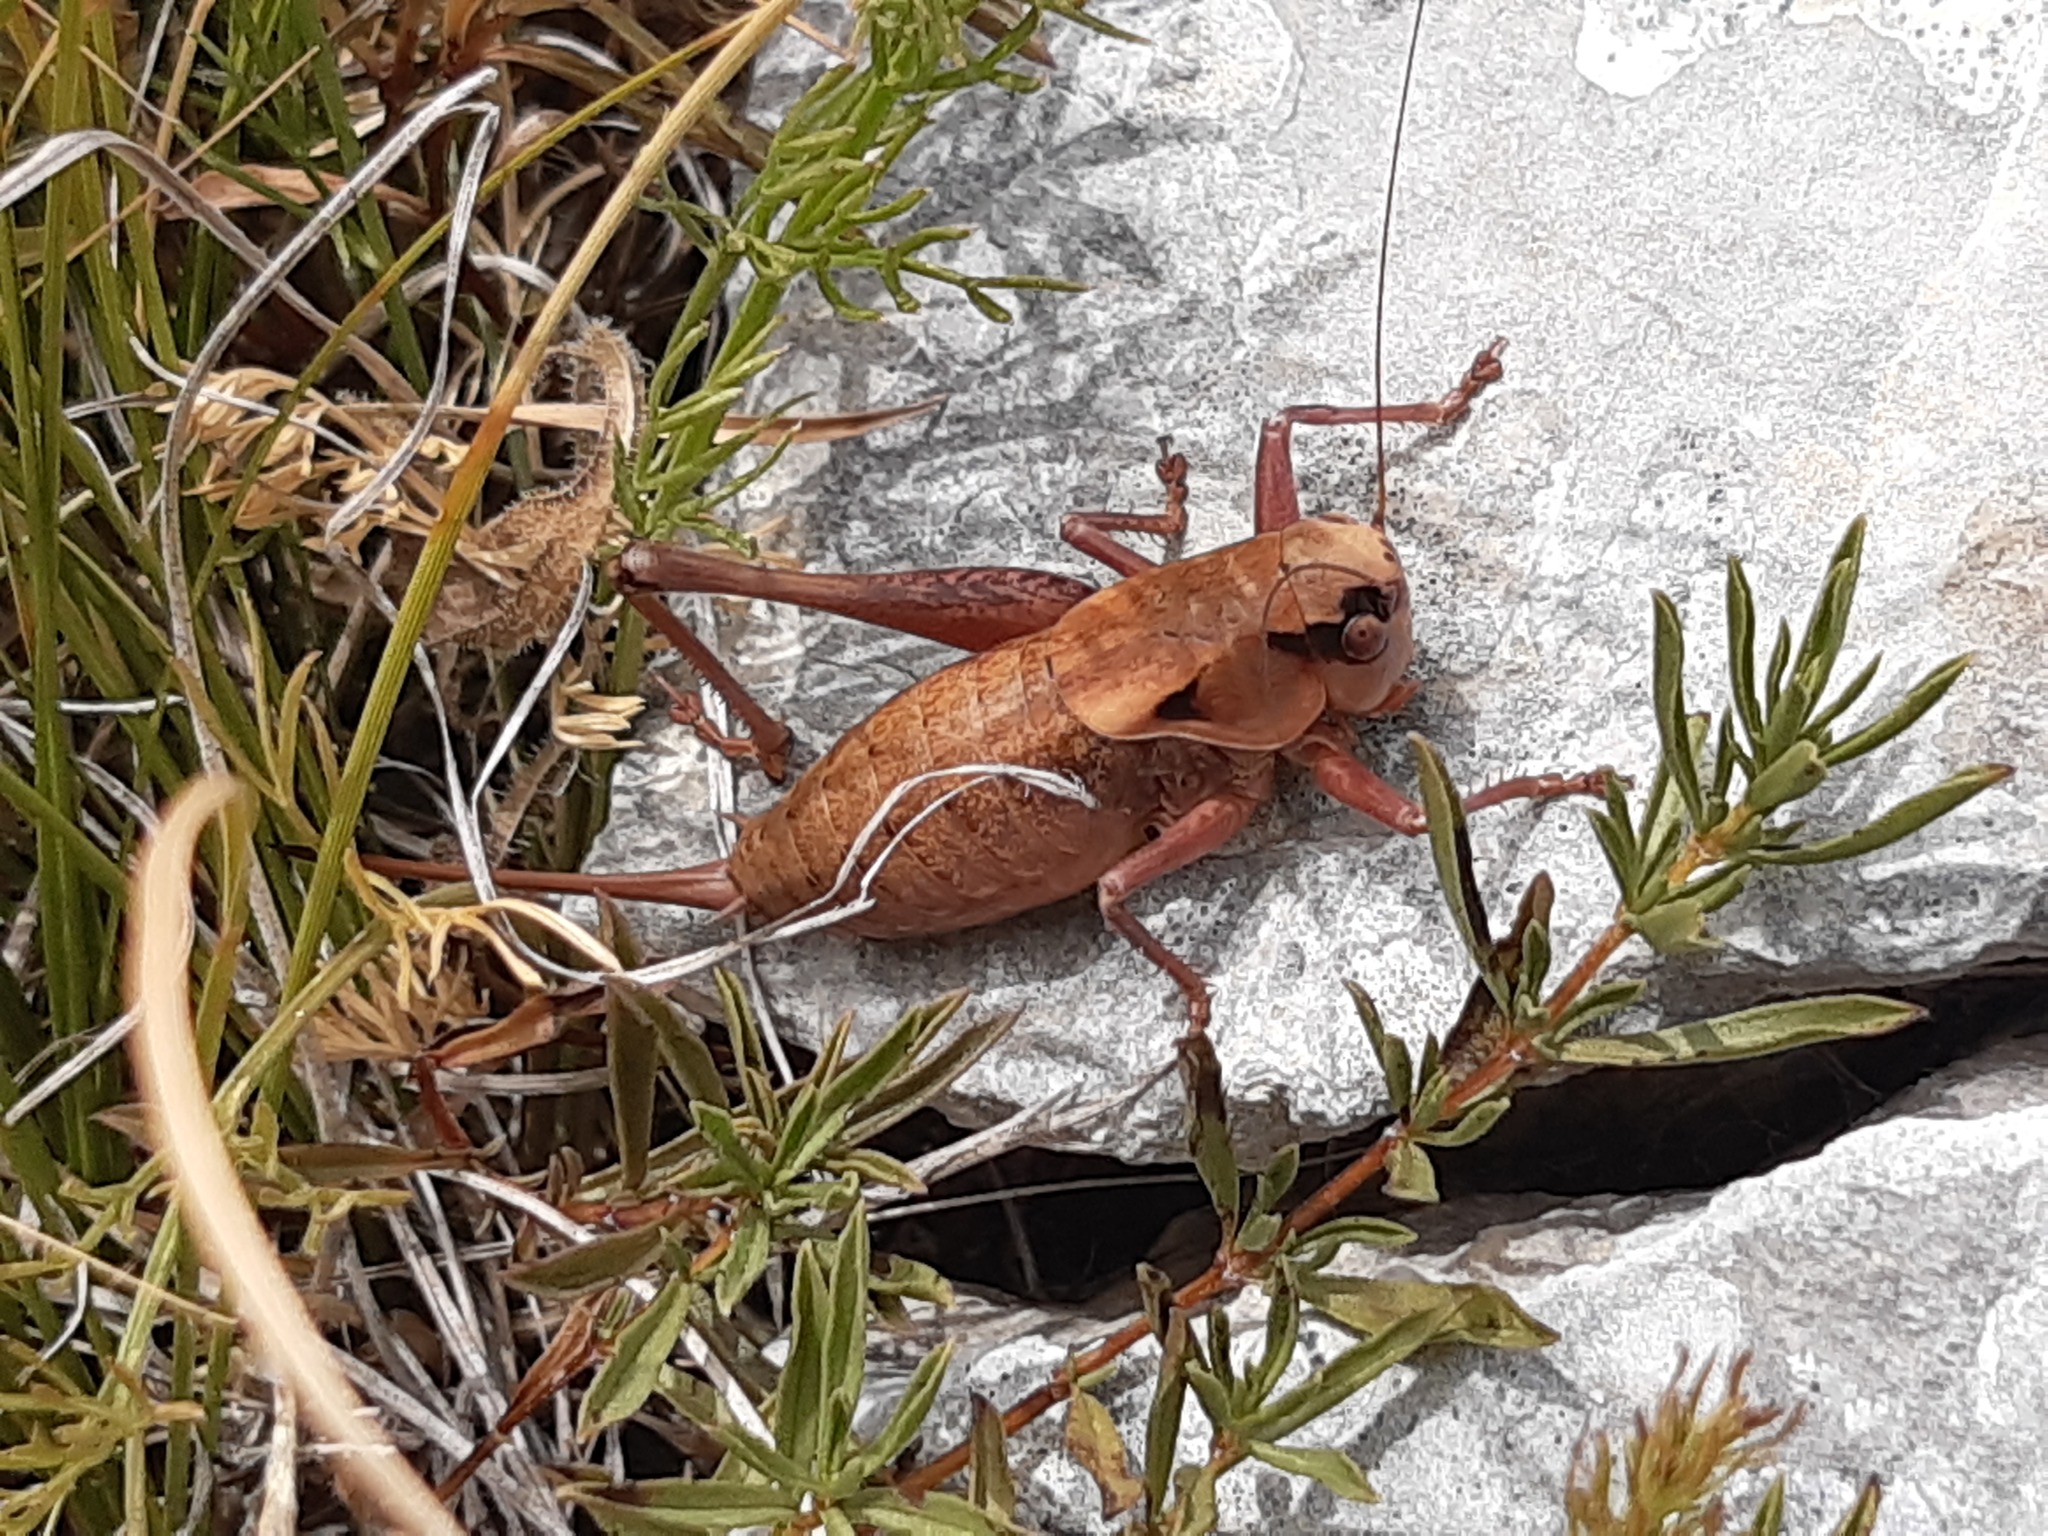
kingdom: Animalia
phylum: Arthropoda
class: Insecta
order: Orthoptera
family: Tettigoniidae
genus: Pholidoptera
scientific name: Pholidoptera dalmatica
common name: Dalmatian dark bush-cricket
